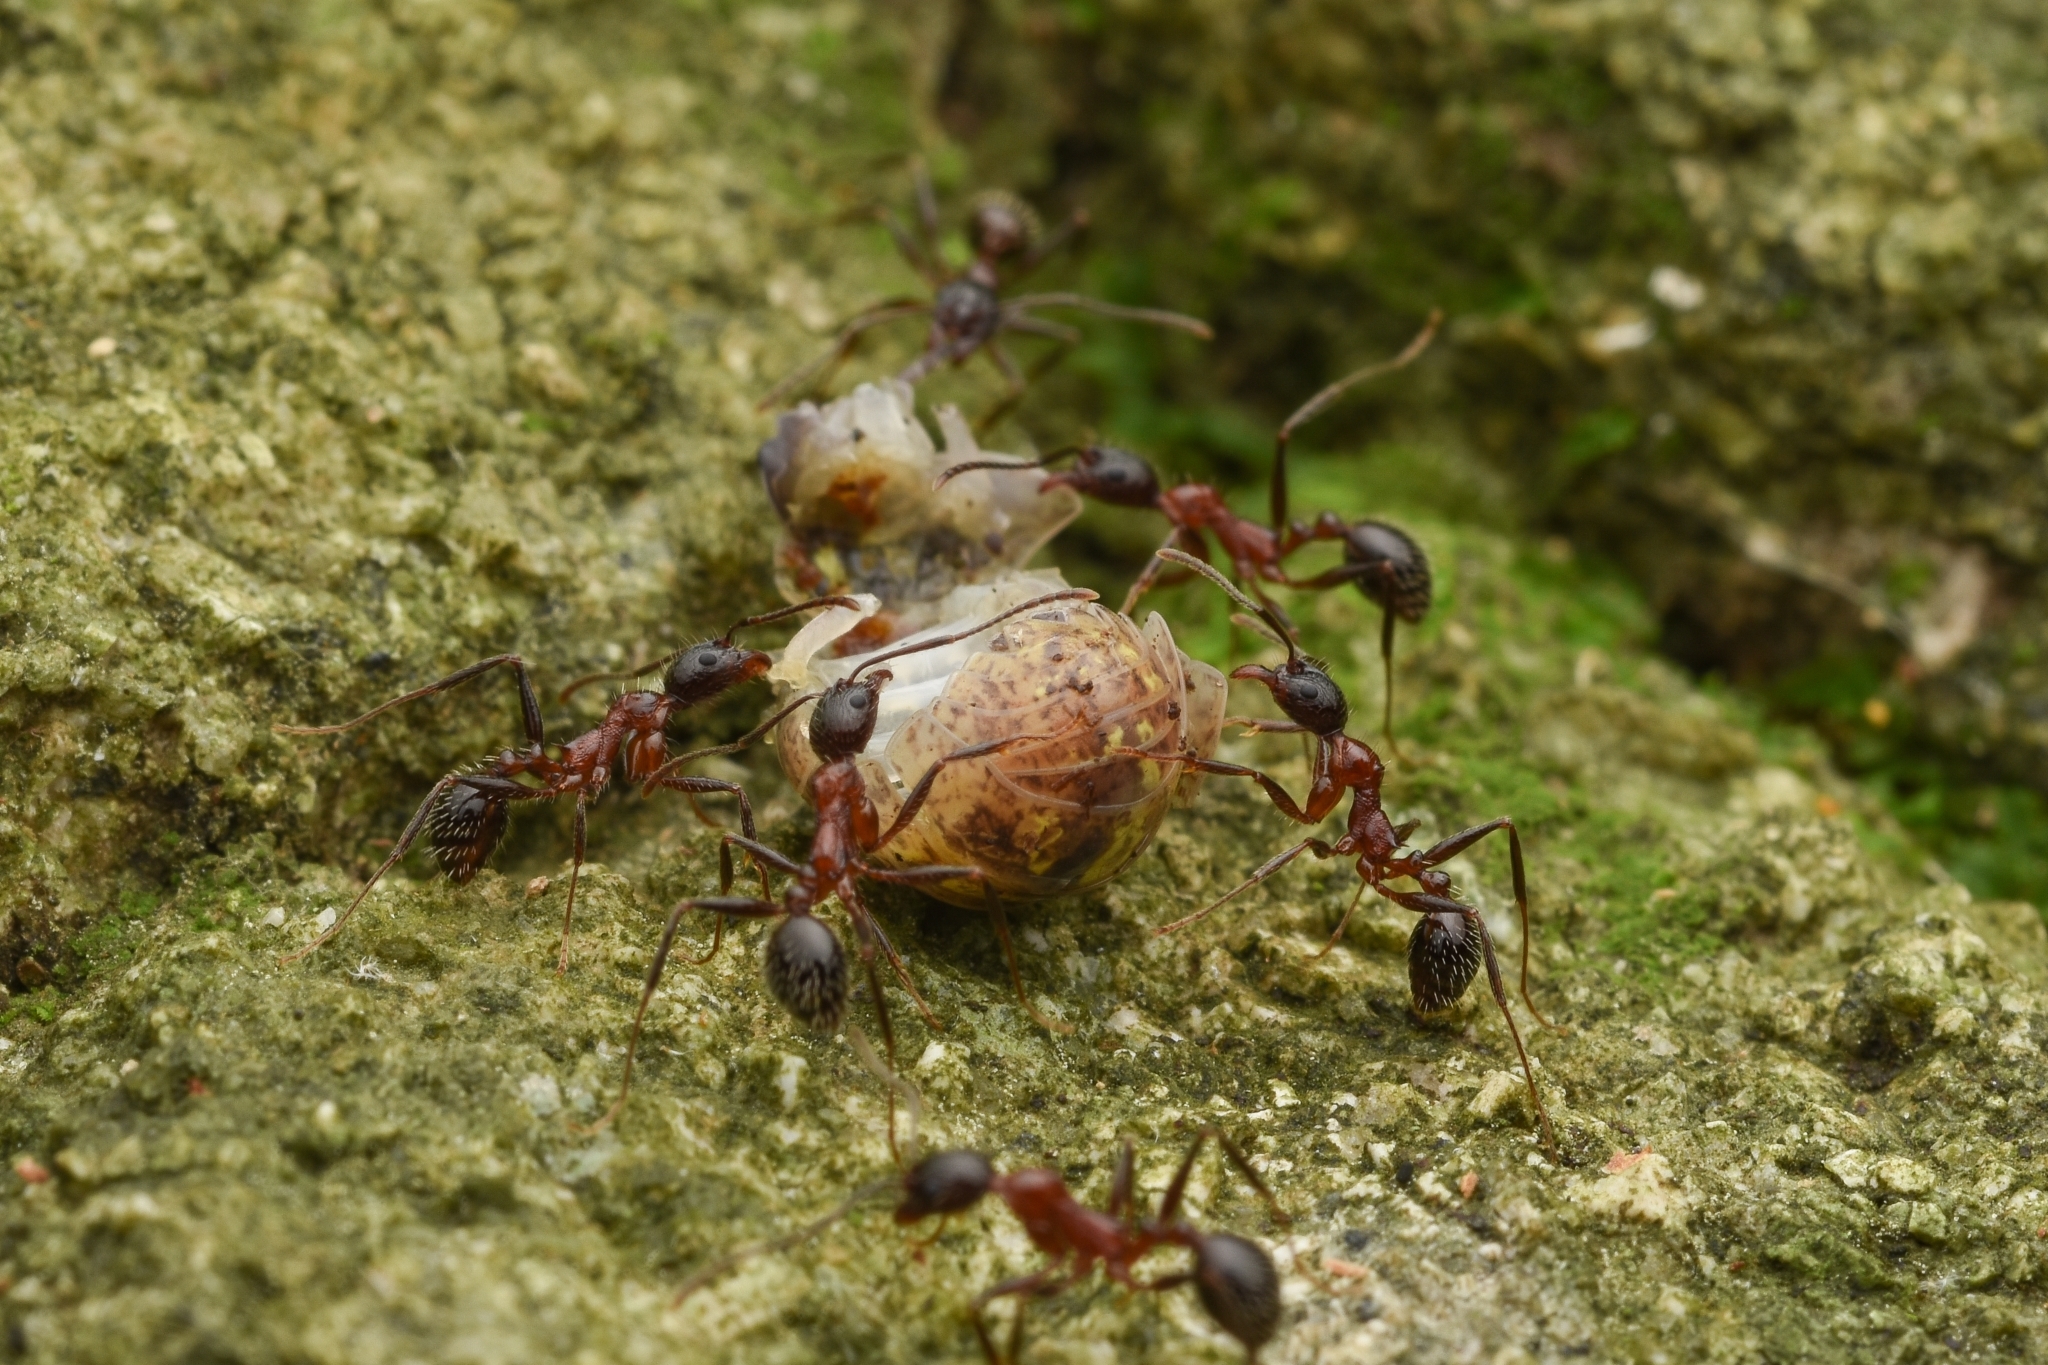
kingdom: Animalia
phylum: Arthropoda
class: Insecta
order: Hymenoptera
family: Formicidae
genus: Aphaenogaster
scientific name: Aphaenogaster lepida
